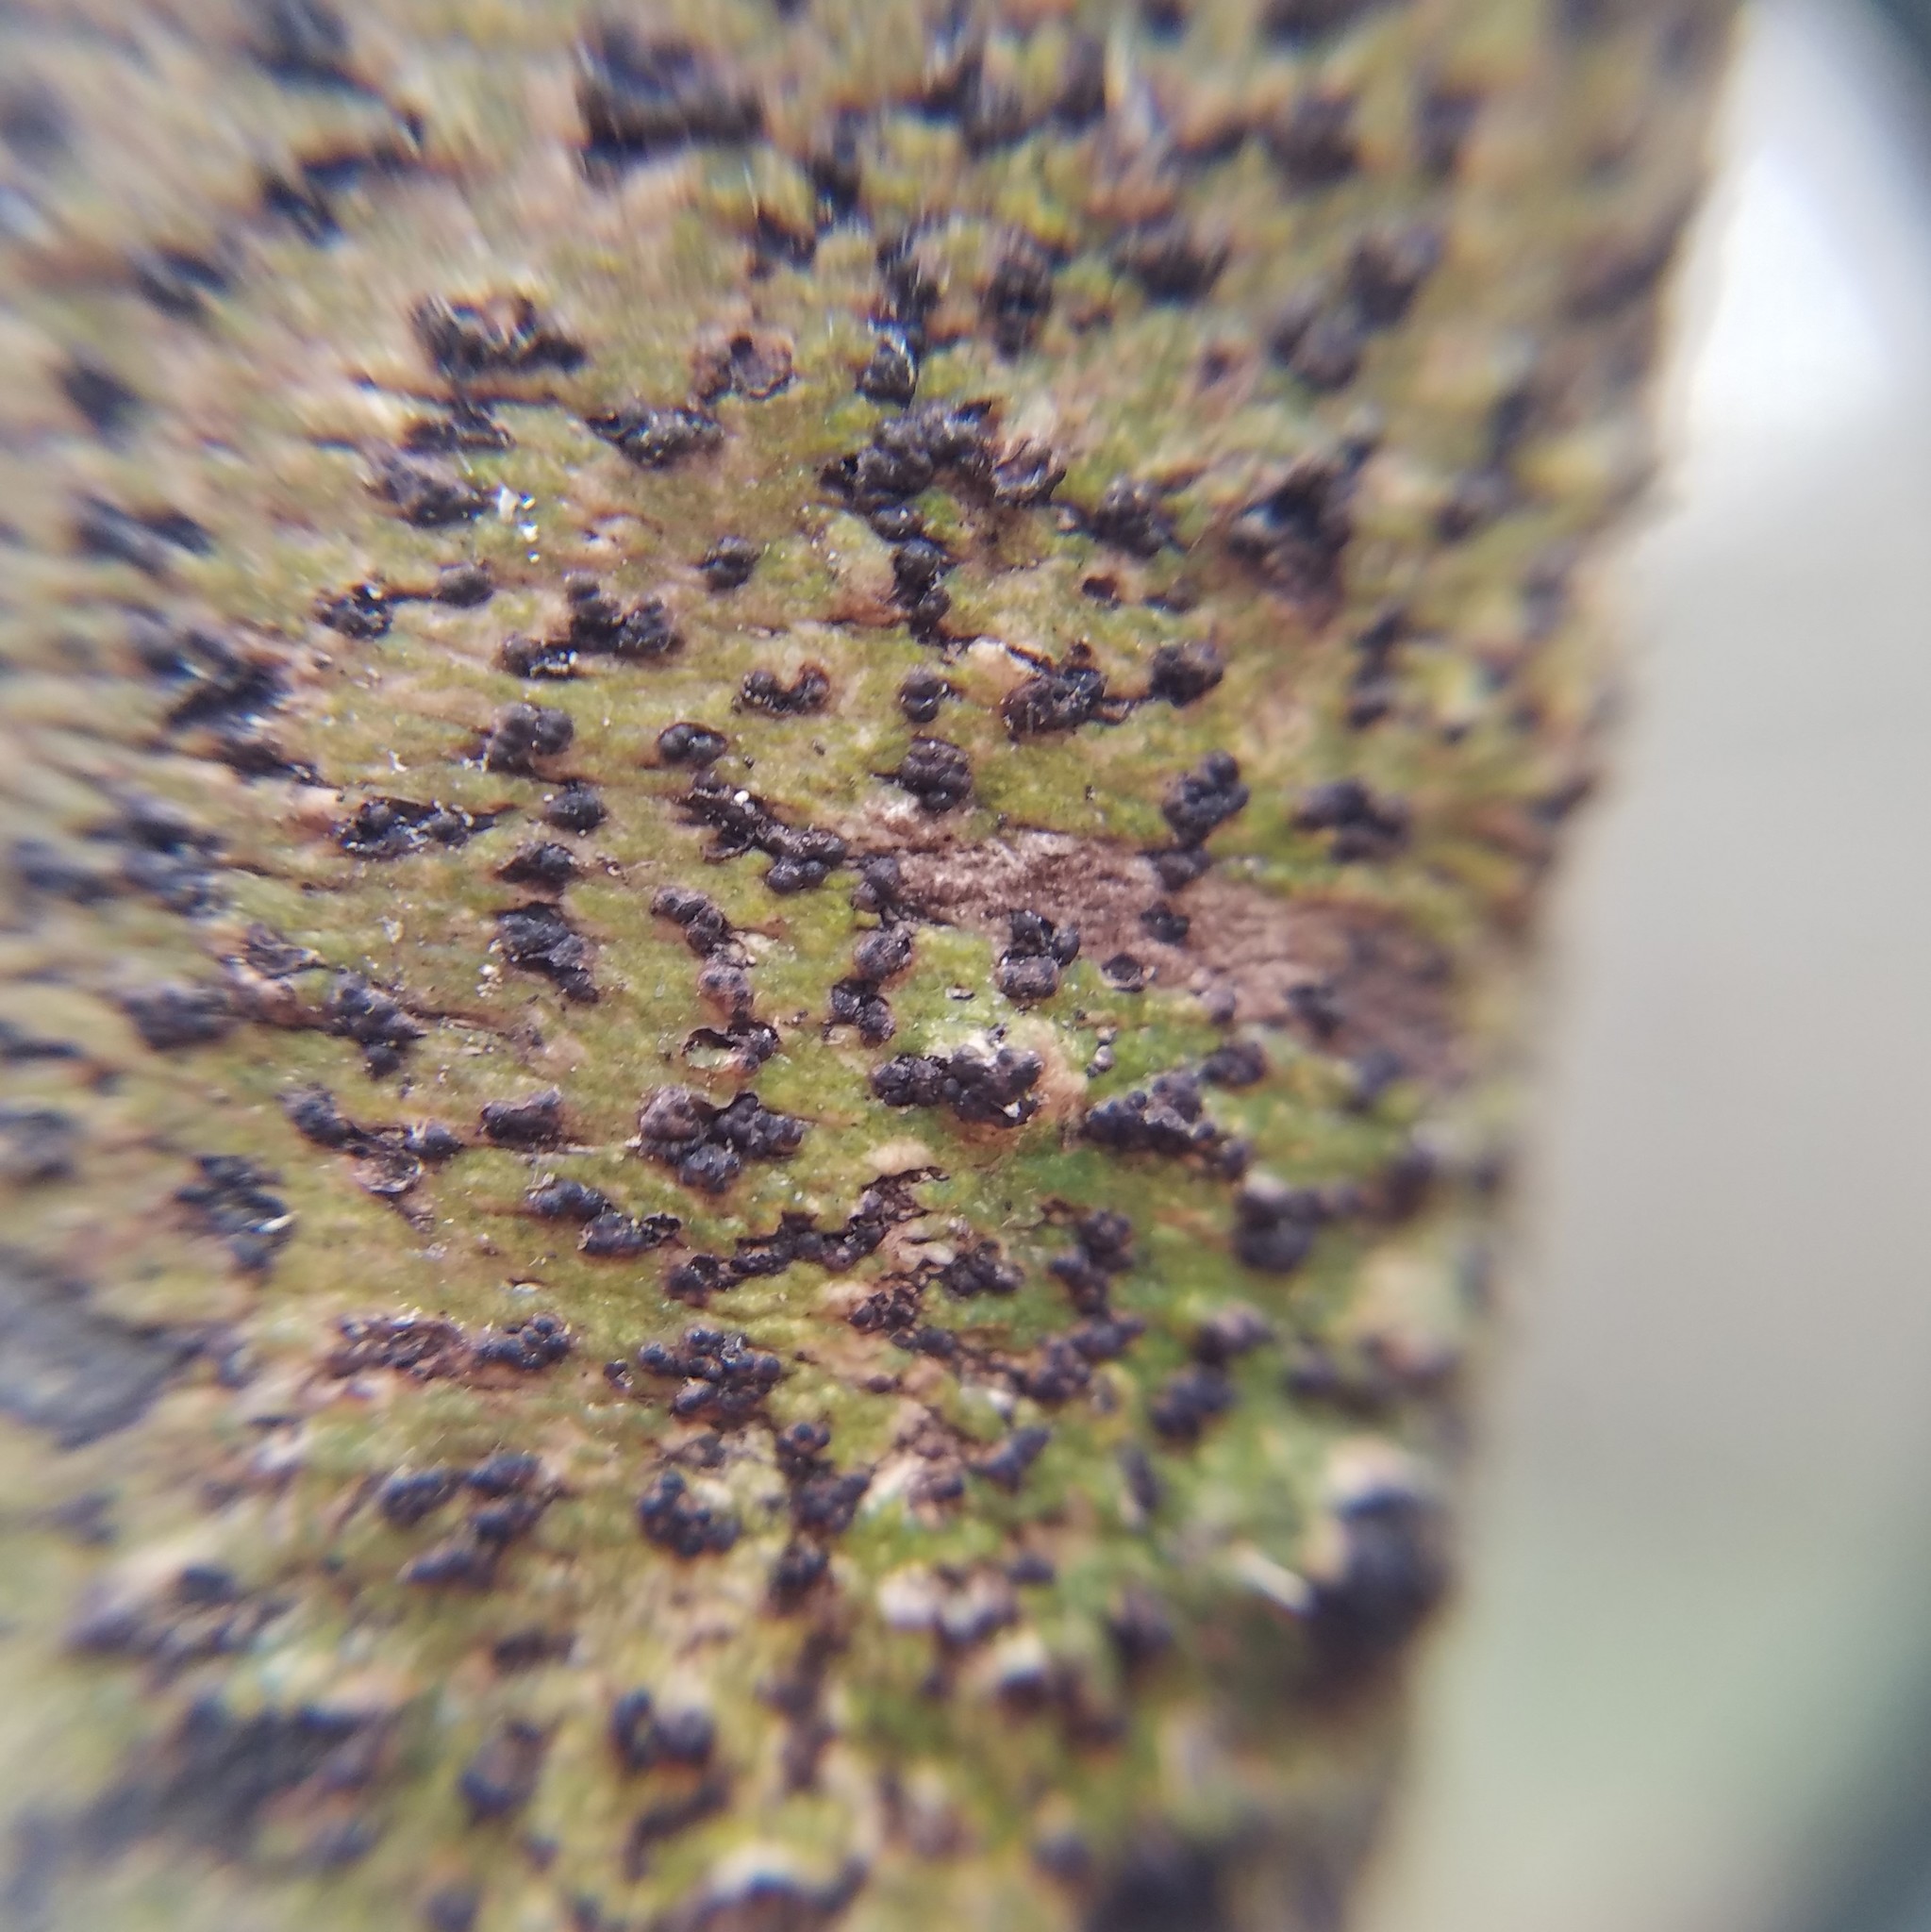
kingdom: Fungi
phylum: Ascomycota
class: Dothideomycetes
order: Trypetheliales
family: Trypetheliaceae
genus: Bathelium
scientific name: Bathelium carolinianum
